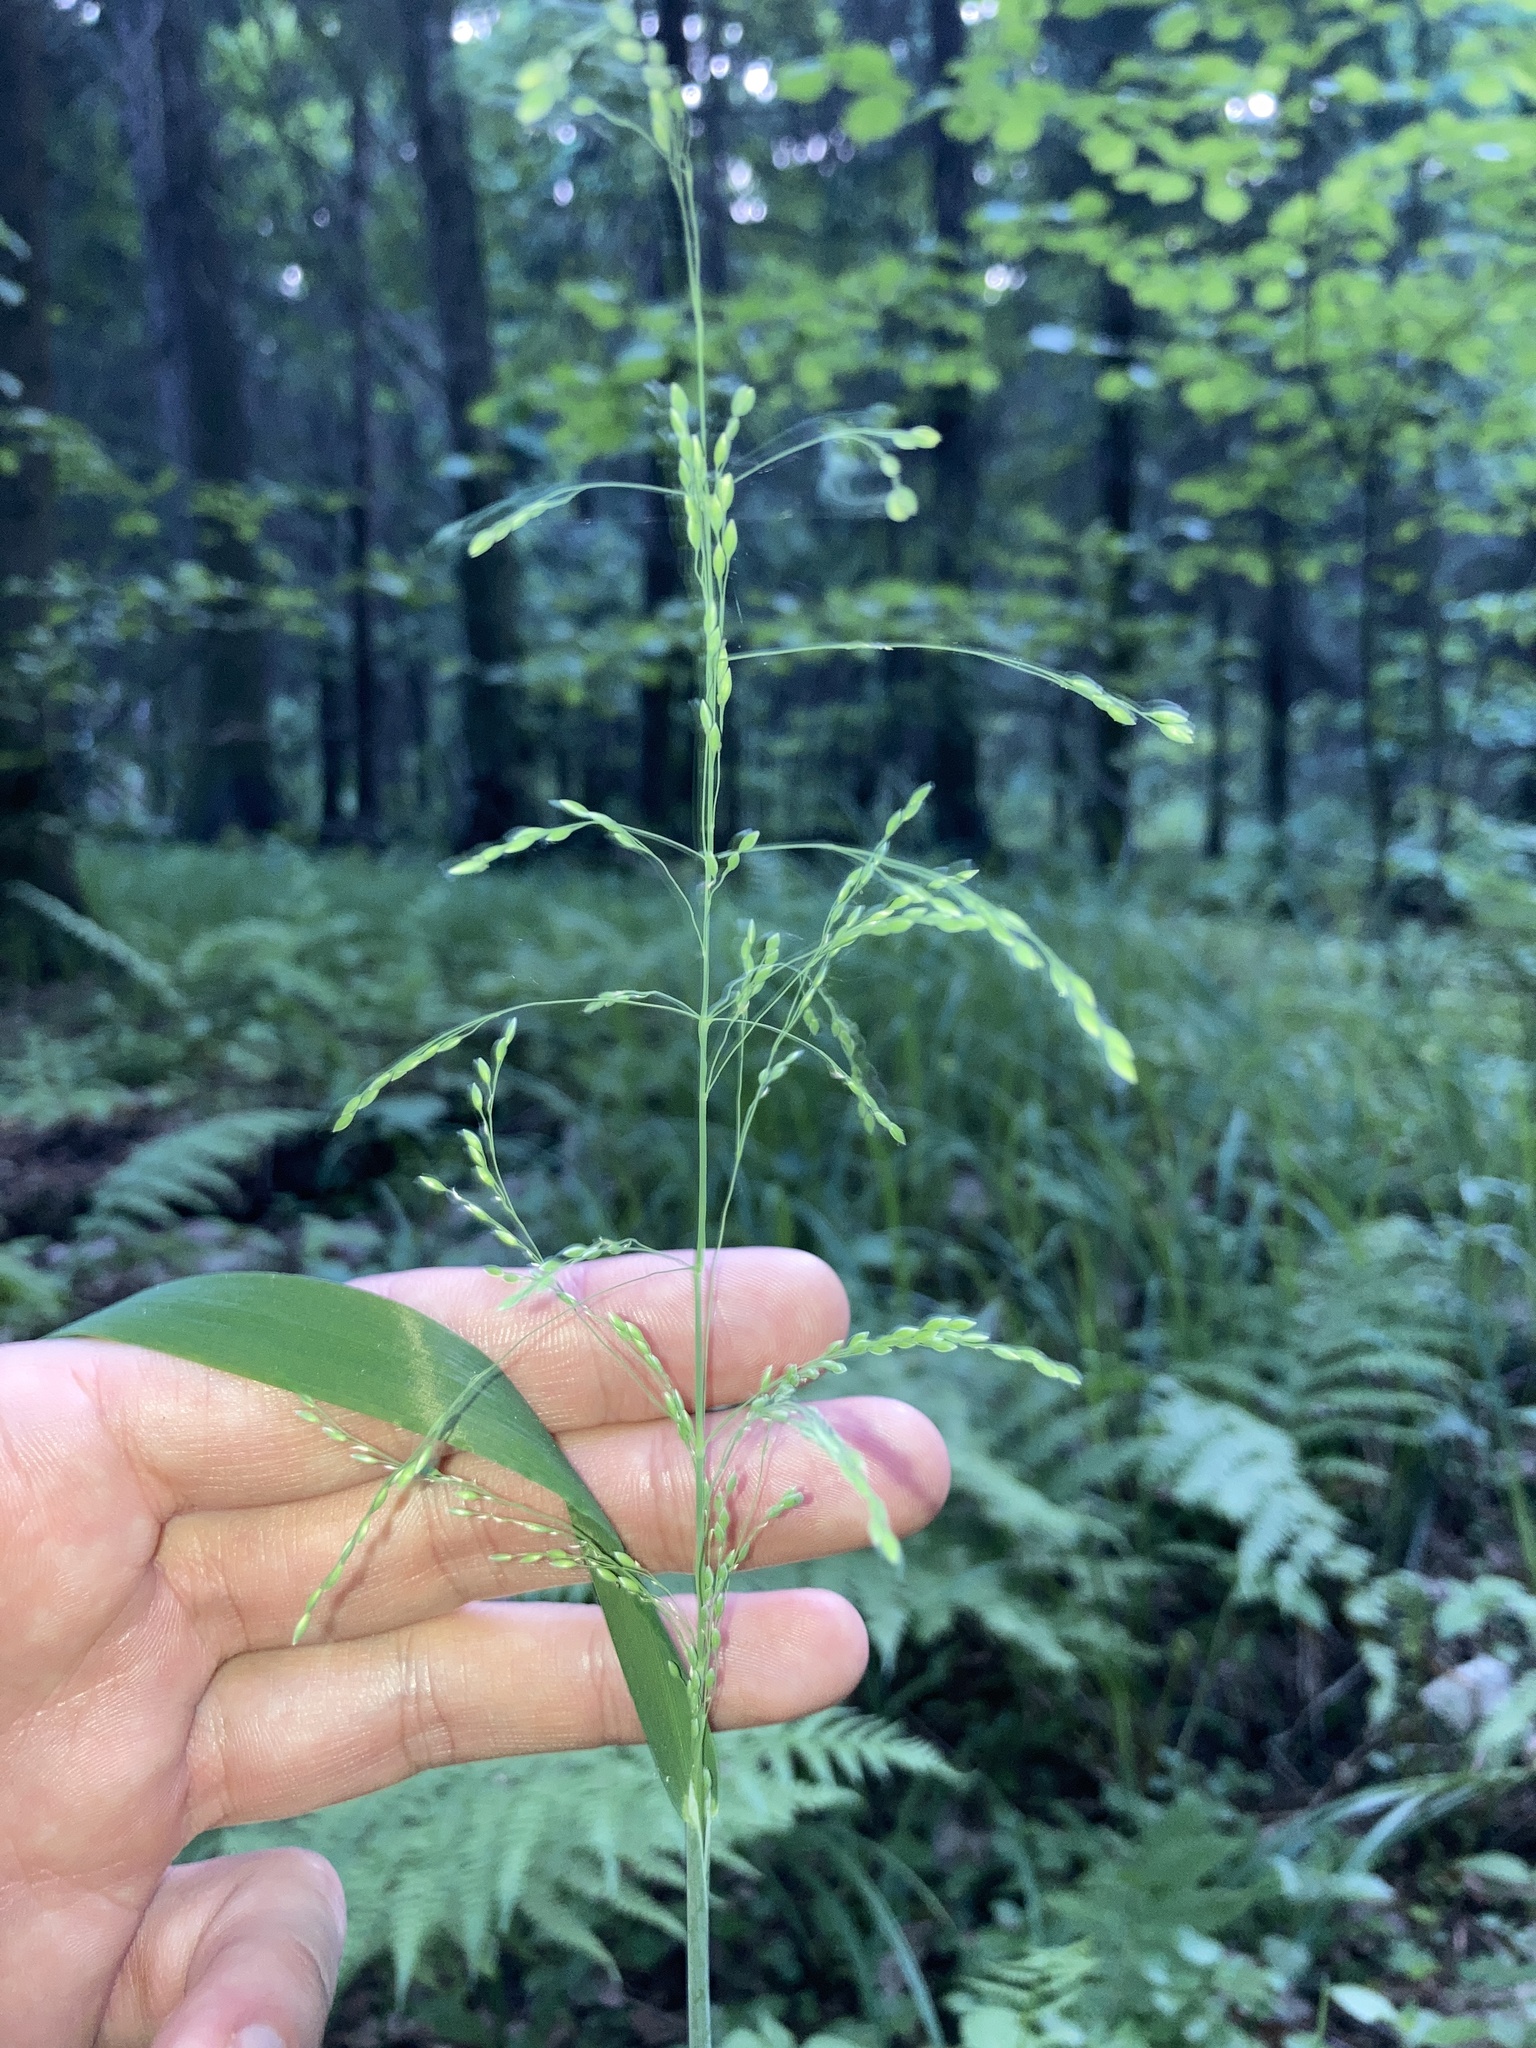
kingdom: Plantae
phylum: Tracheophyta
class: Liliopsida
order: Poales
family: Poaceae
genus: Milium
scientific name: Milium effusum
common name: Wood millet
